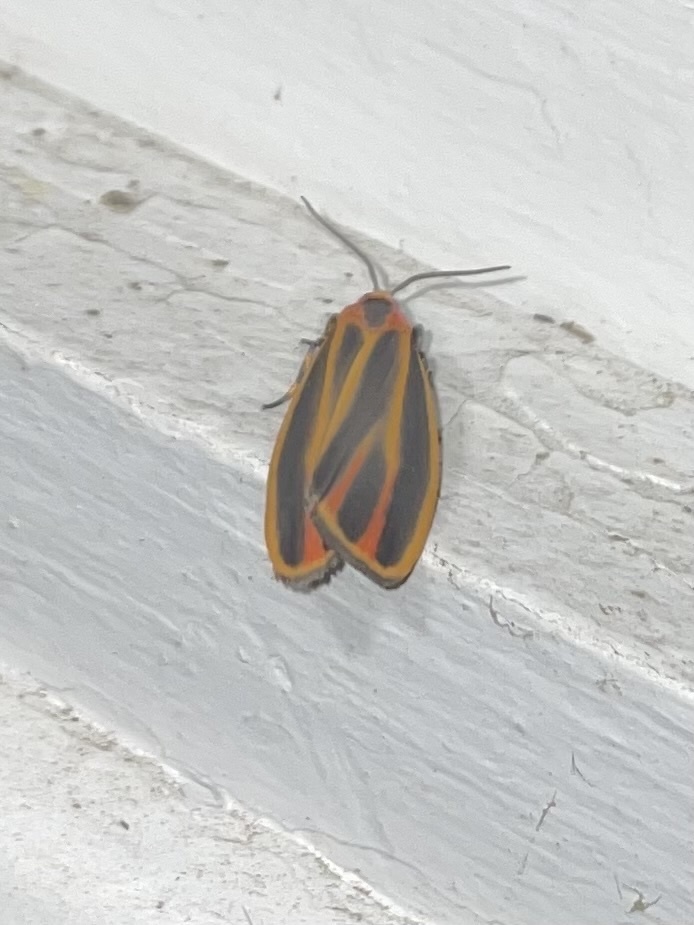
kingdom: Animalia
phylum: Arthropoda
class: Insecta
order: Lepidoptera
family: Erebidae
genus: Hypoprepia
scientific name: Hypoprepia fucosa
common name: Painted lichen moth
